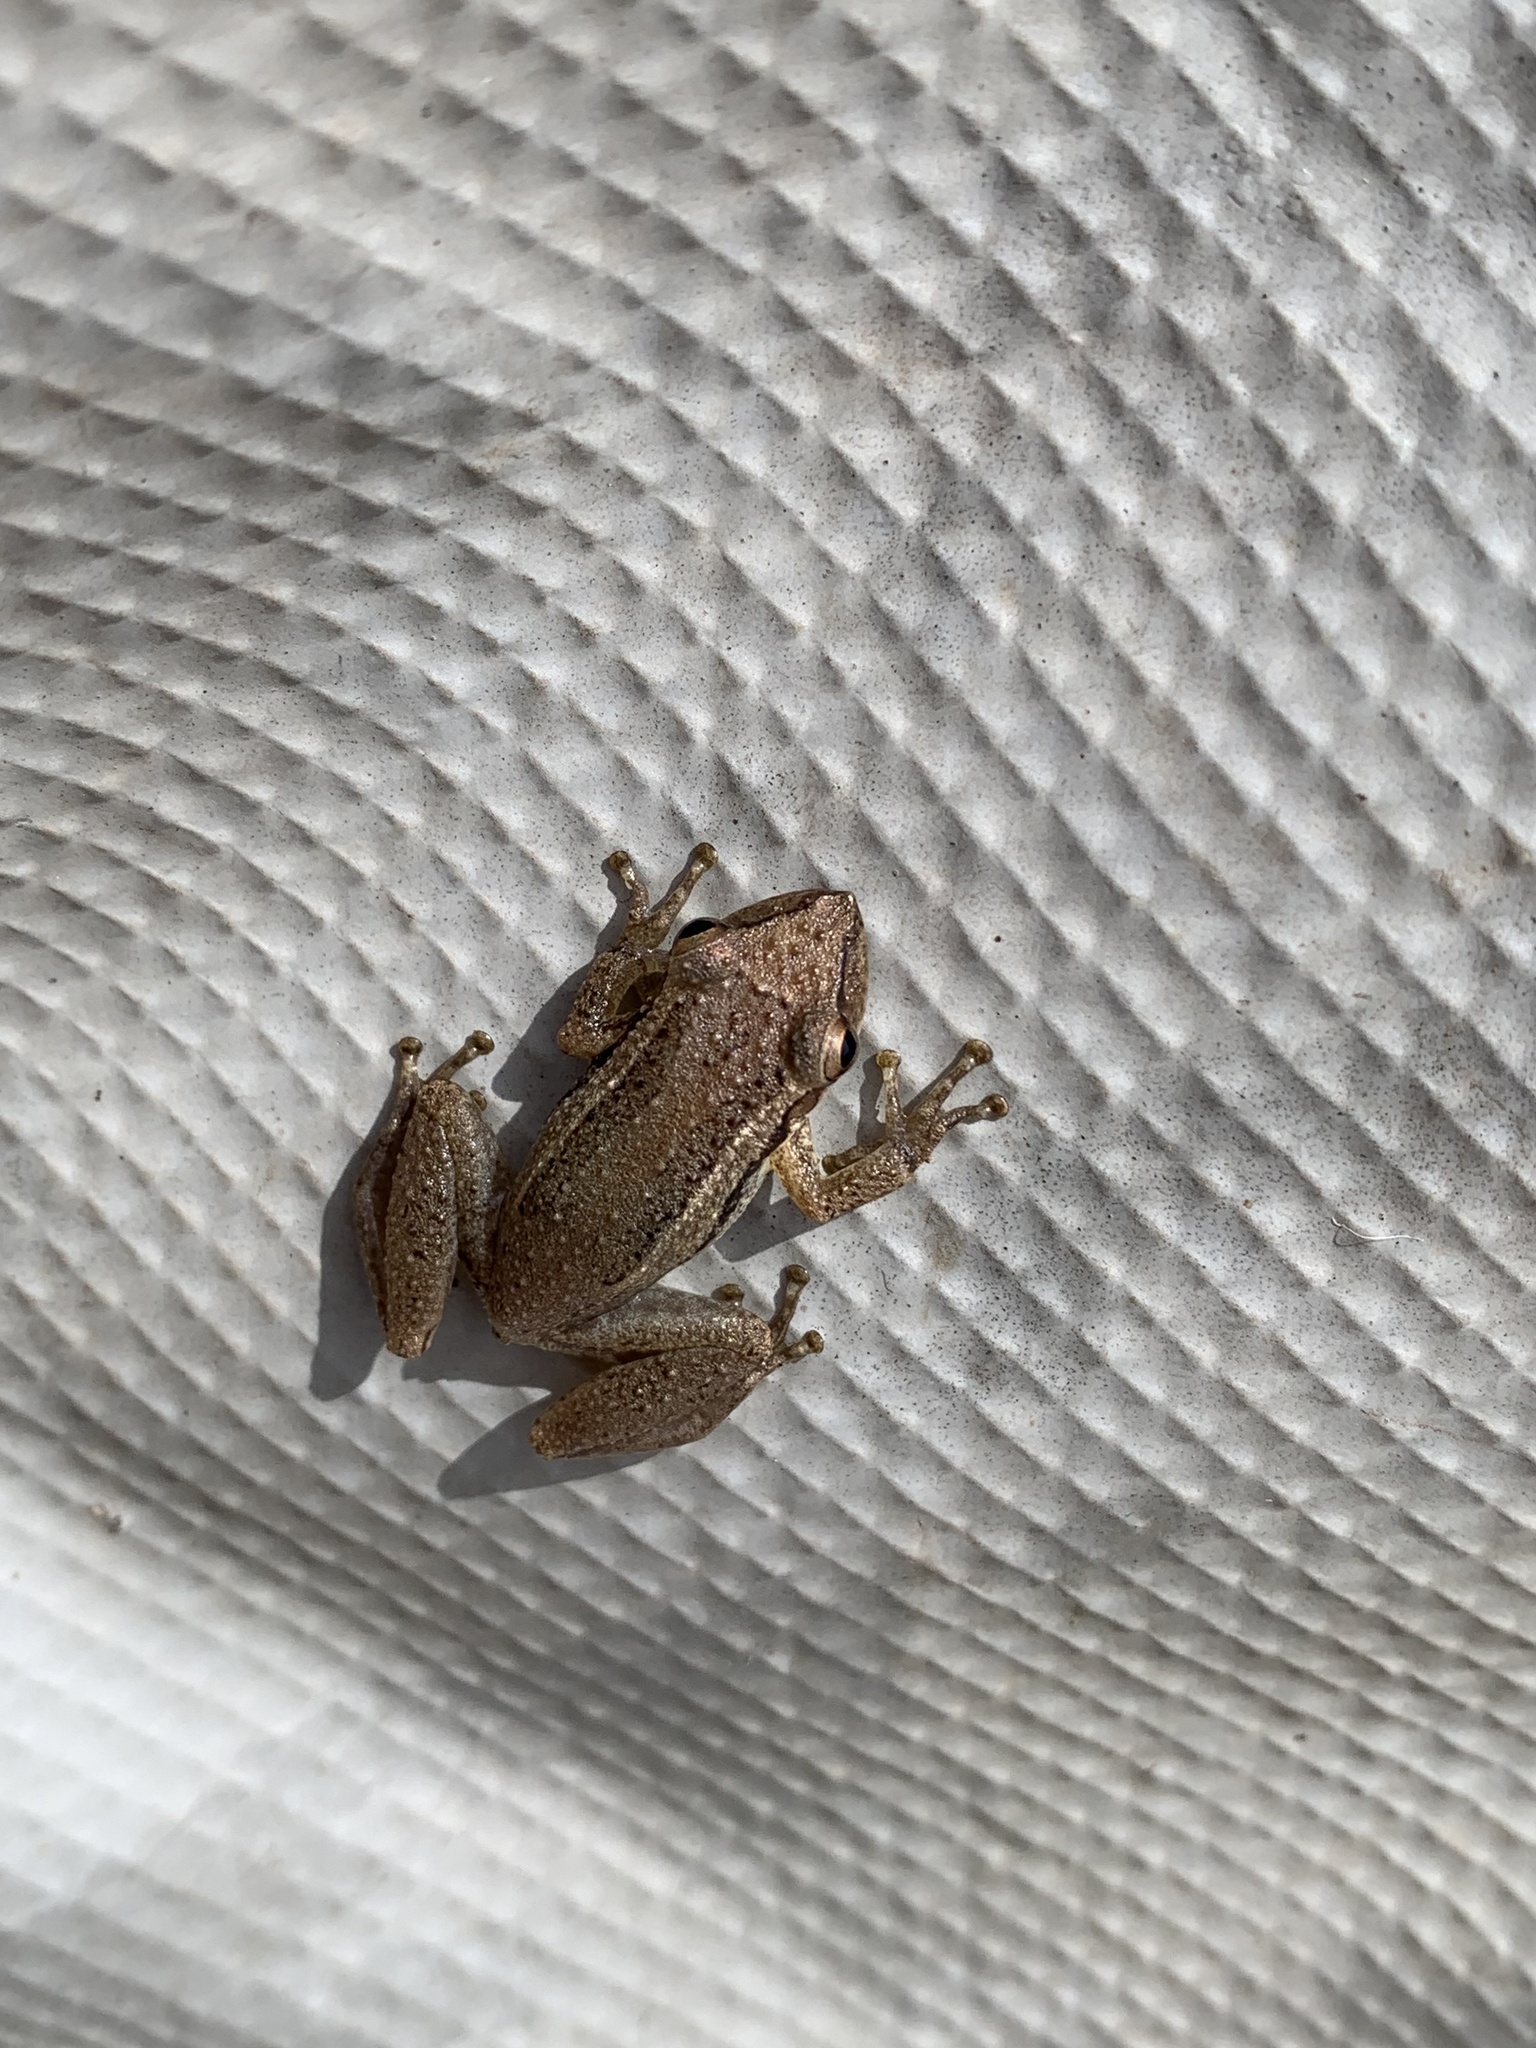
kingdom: Animalia
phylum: Chordata
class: Amphibia
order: Anura
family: Hylidae
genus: Scinax
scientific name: Scinax alter
